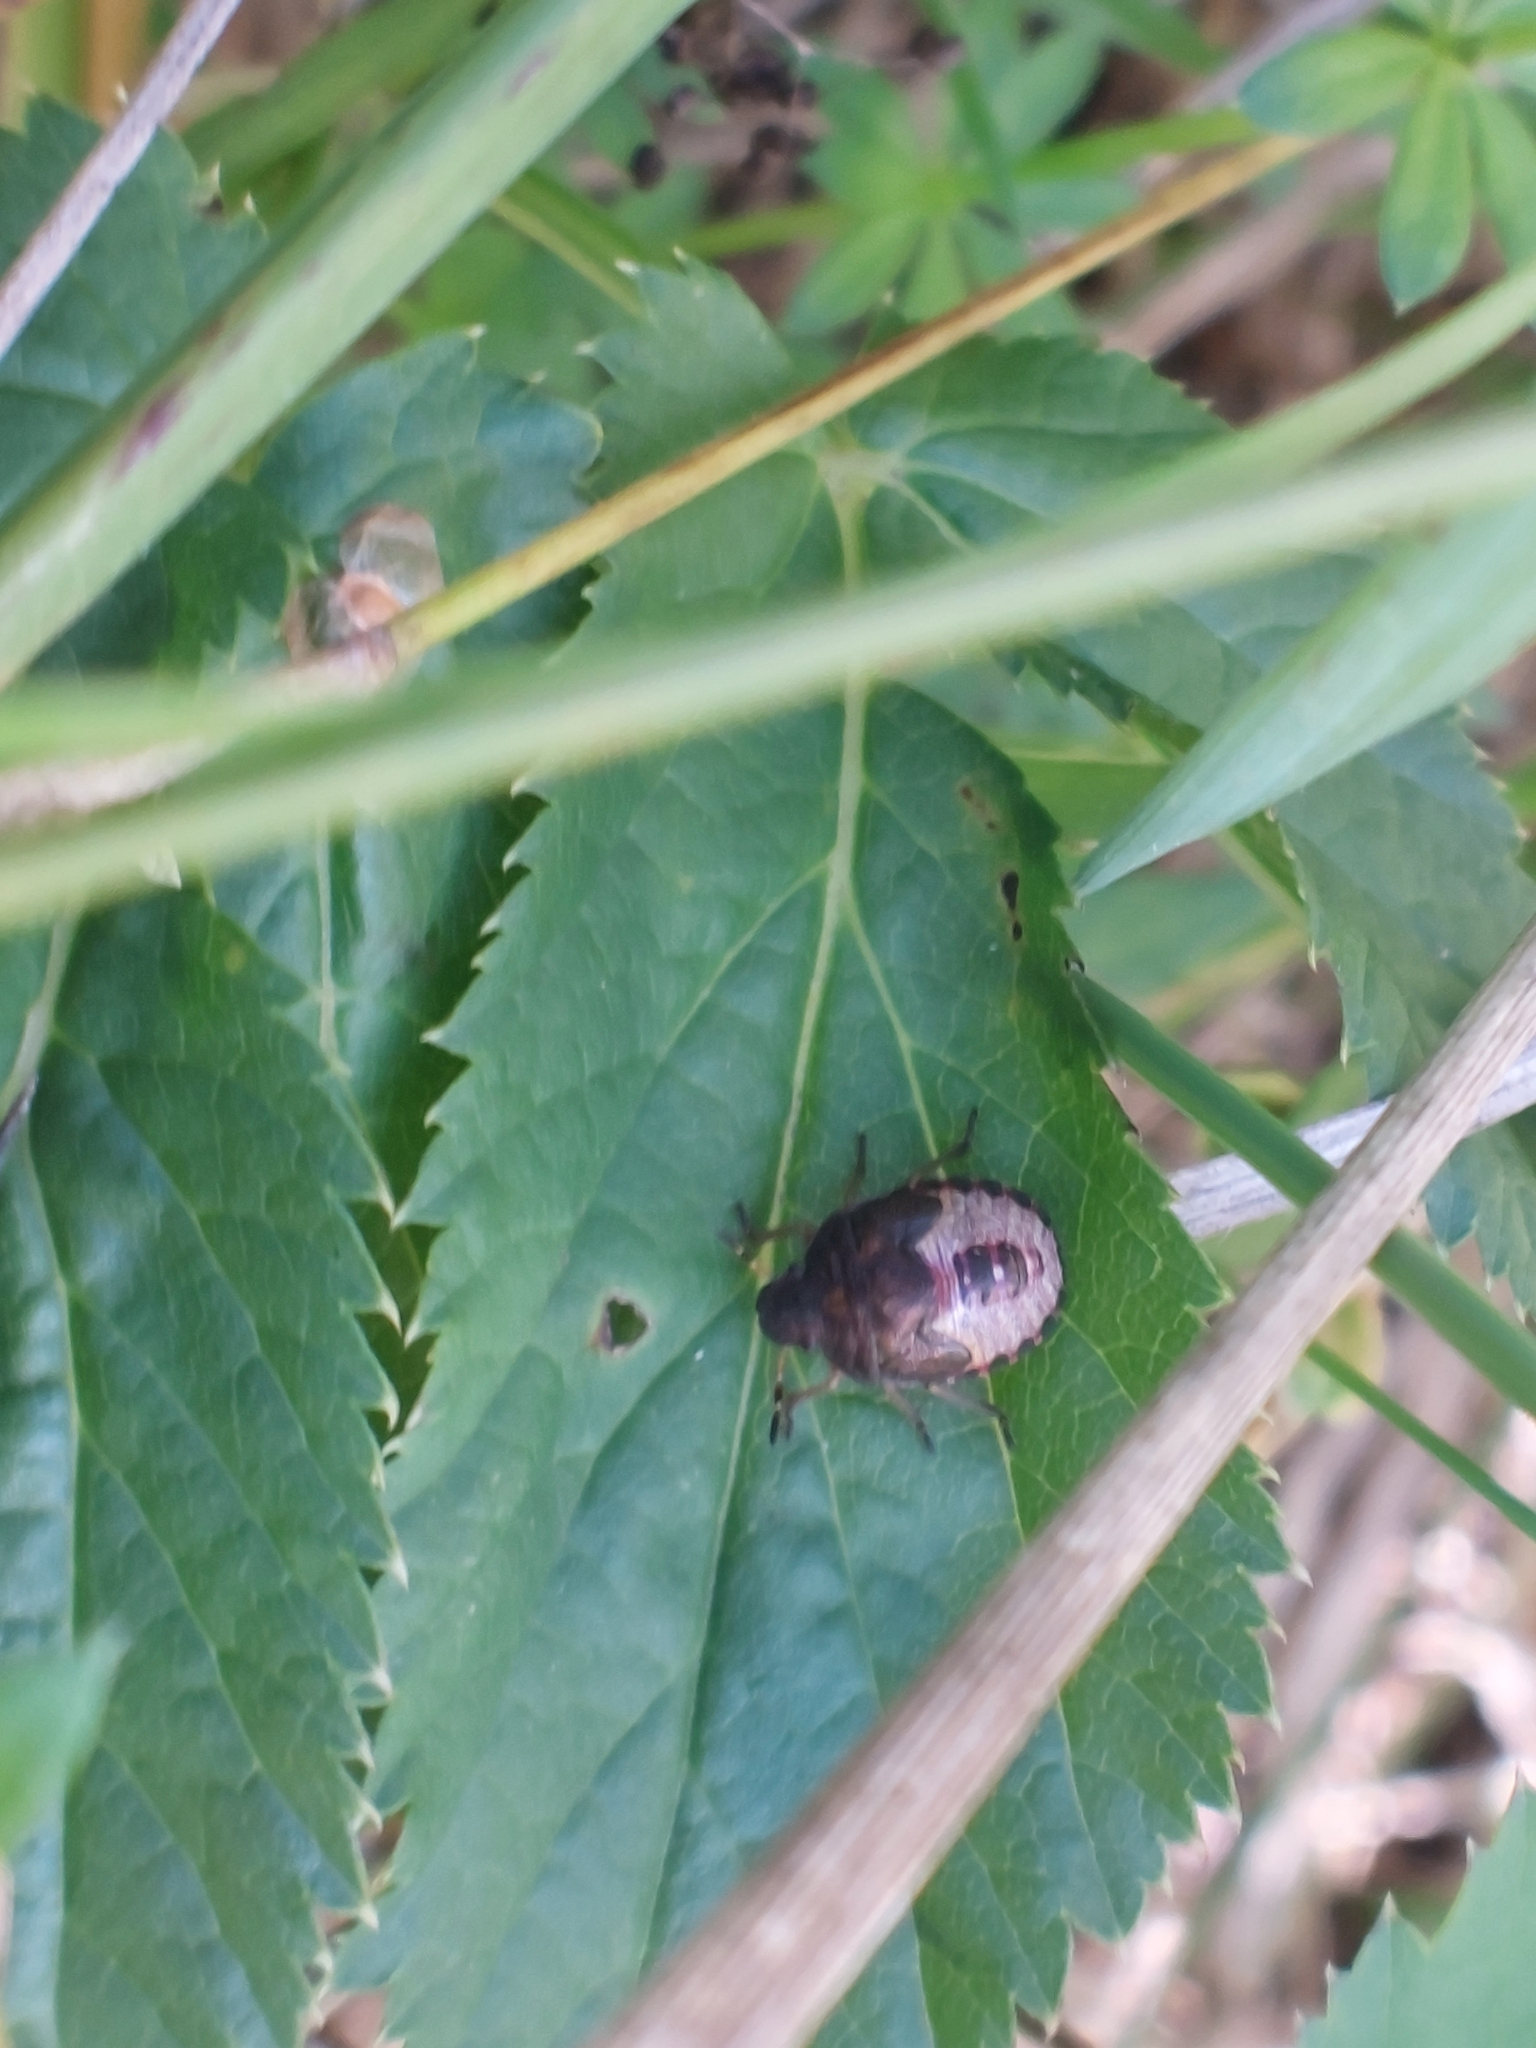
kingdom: Animalia
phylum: Arthropoda
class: Insecta
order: Hemiptera
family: Pentatomidae
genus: Holcostethus
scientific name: Holcostethus strictus
